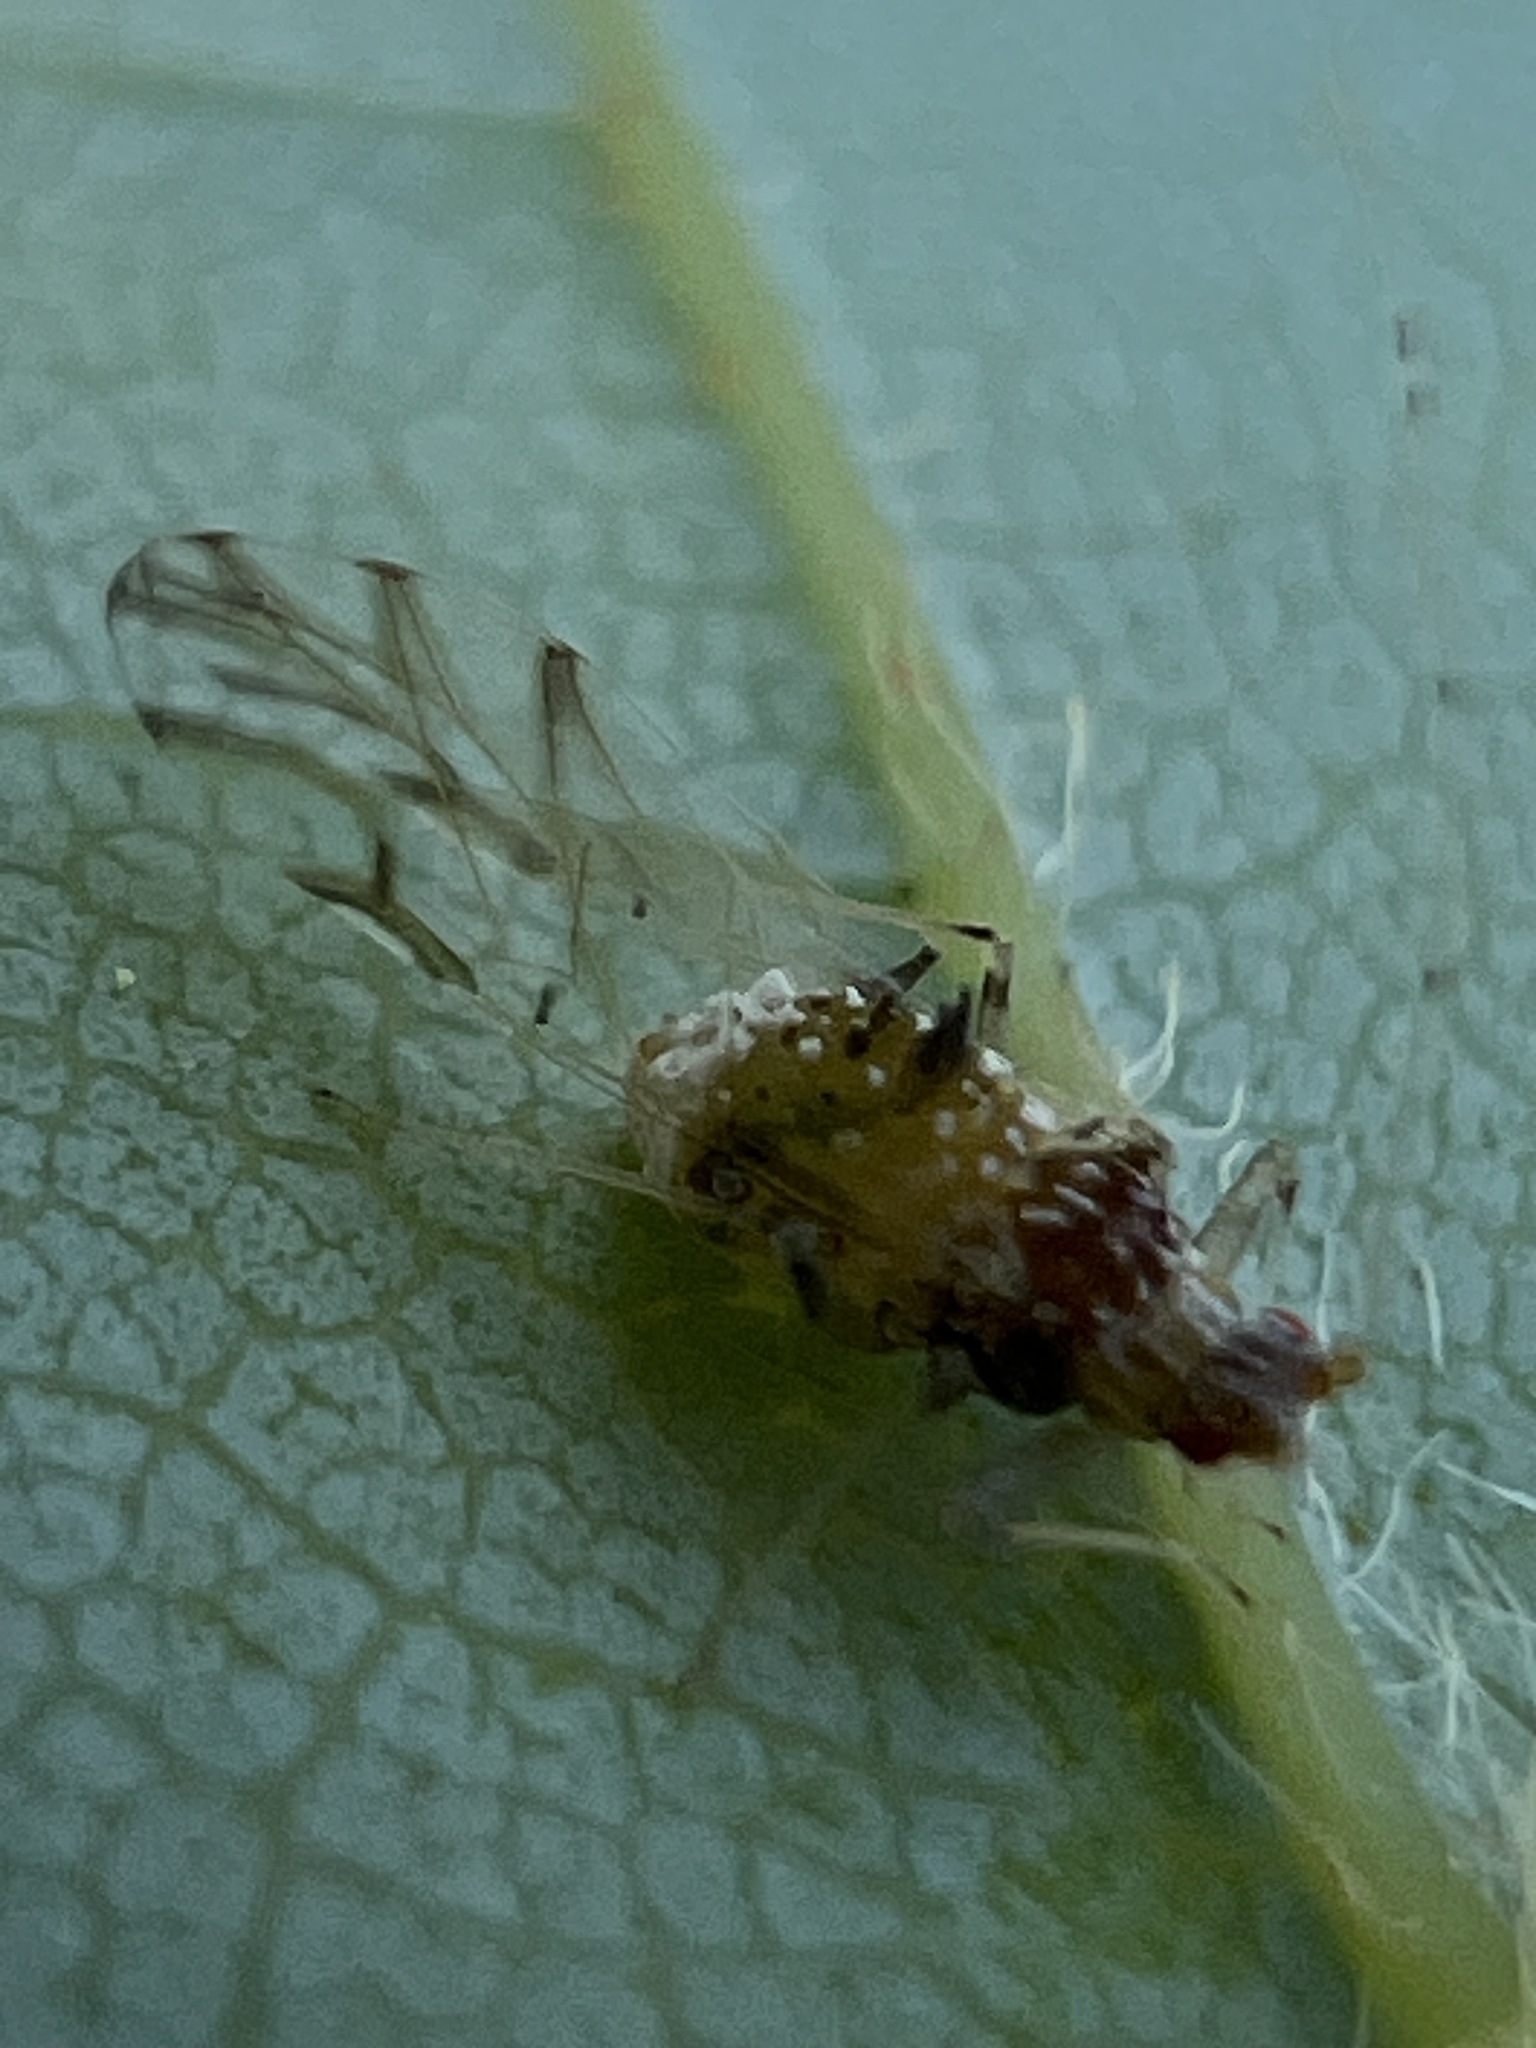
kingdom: Animalia
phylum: Arthropoda
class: Insecta
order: Hemiptera
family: Aphididae
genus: Drepanaphis
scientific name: Drepanaphis acerifoliae
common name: Painted maple aphid
